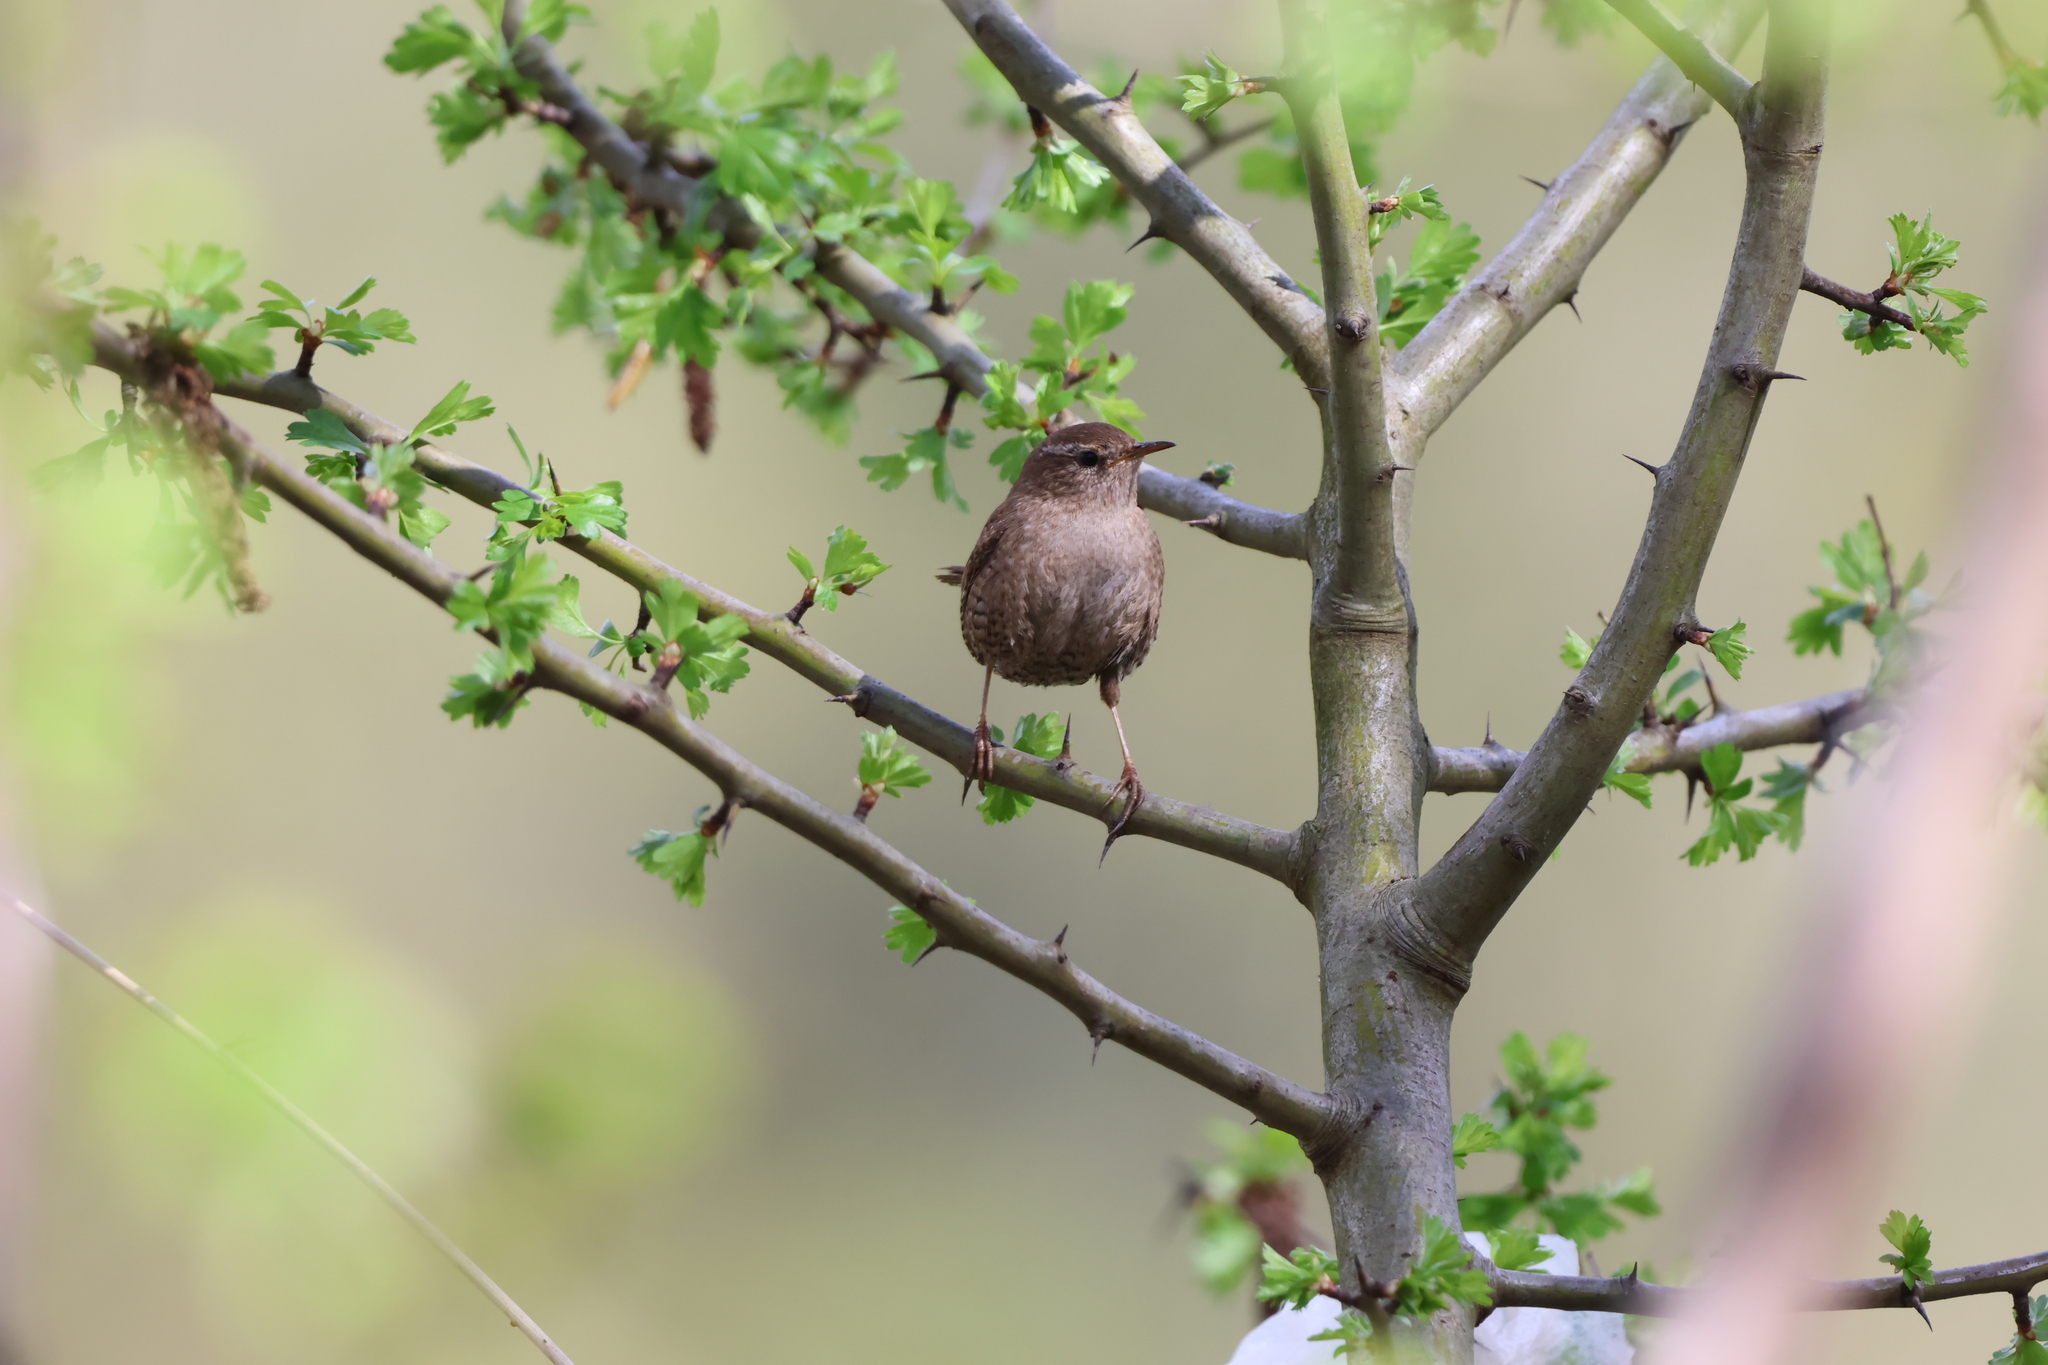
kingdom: Animalia
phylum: Chordata
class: Aves
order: Passeriformes
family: Troglodytidae
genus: Troglodytes
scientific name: Troglodytes troglodytes
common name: Eurasian wren
